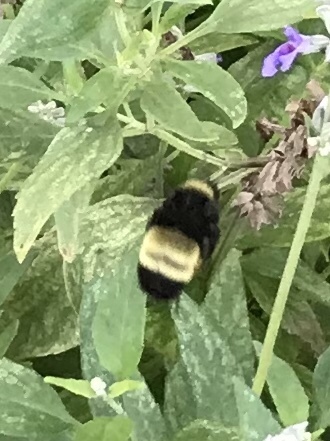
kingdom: Animalia
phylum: Arthropoda
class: Insecta
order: Hymenoptera
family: Apidae
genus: Bombus
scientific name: Bombus pensylvanicus
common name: Bumble bee
